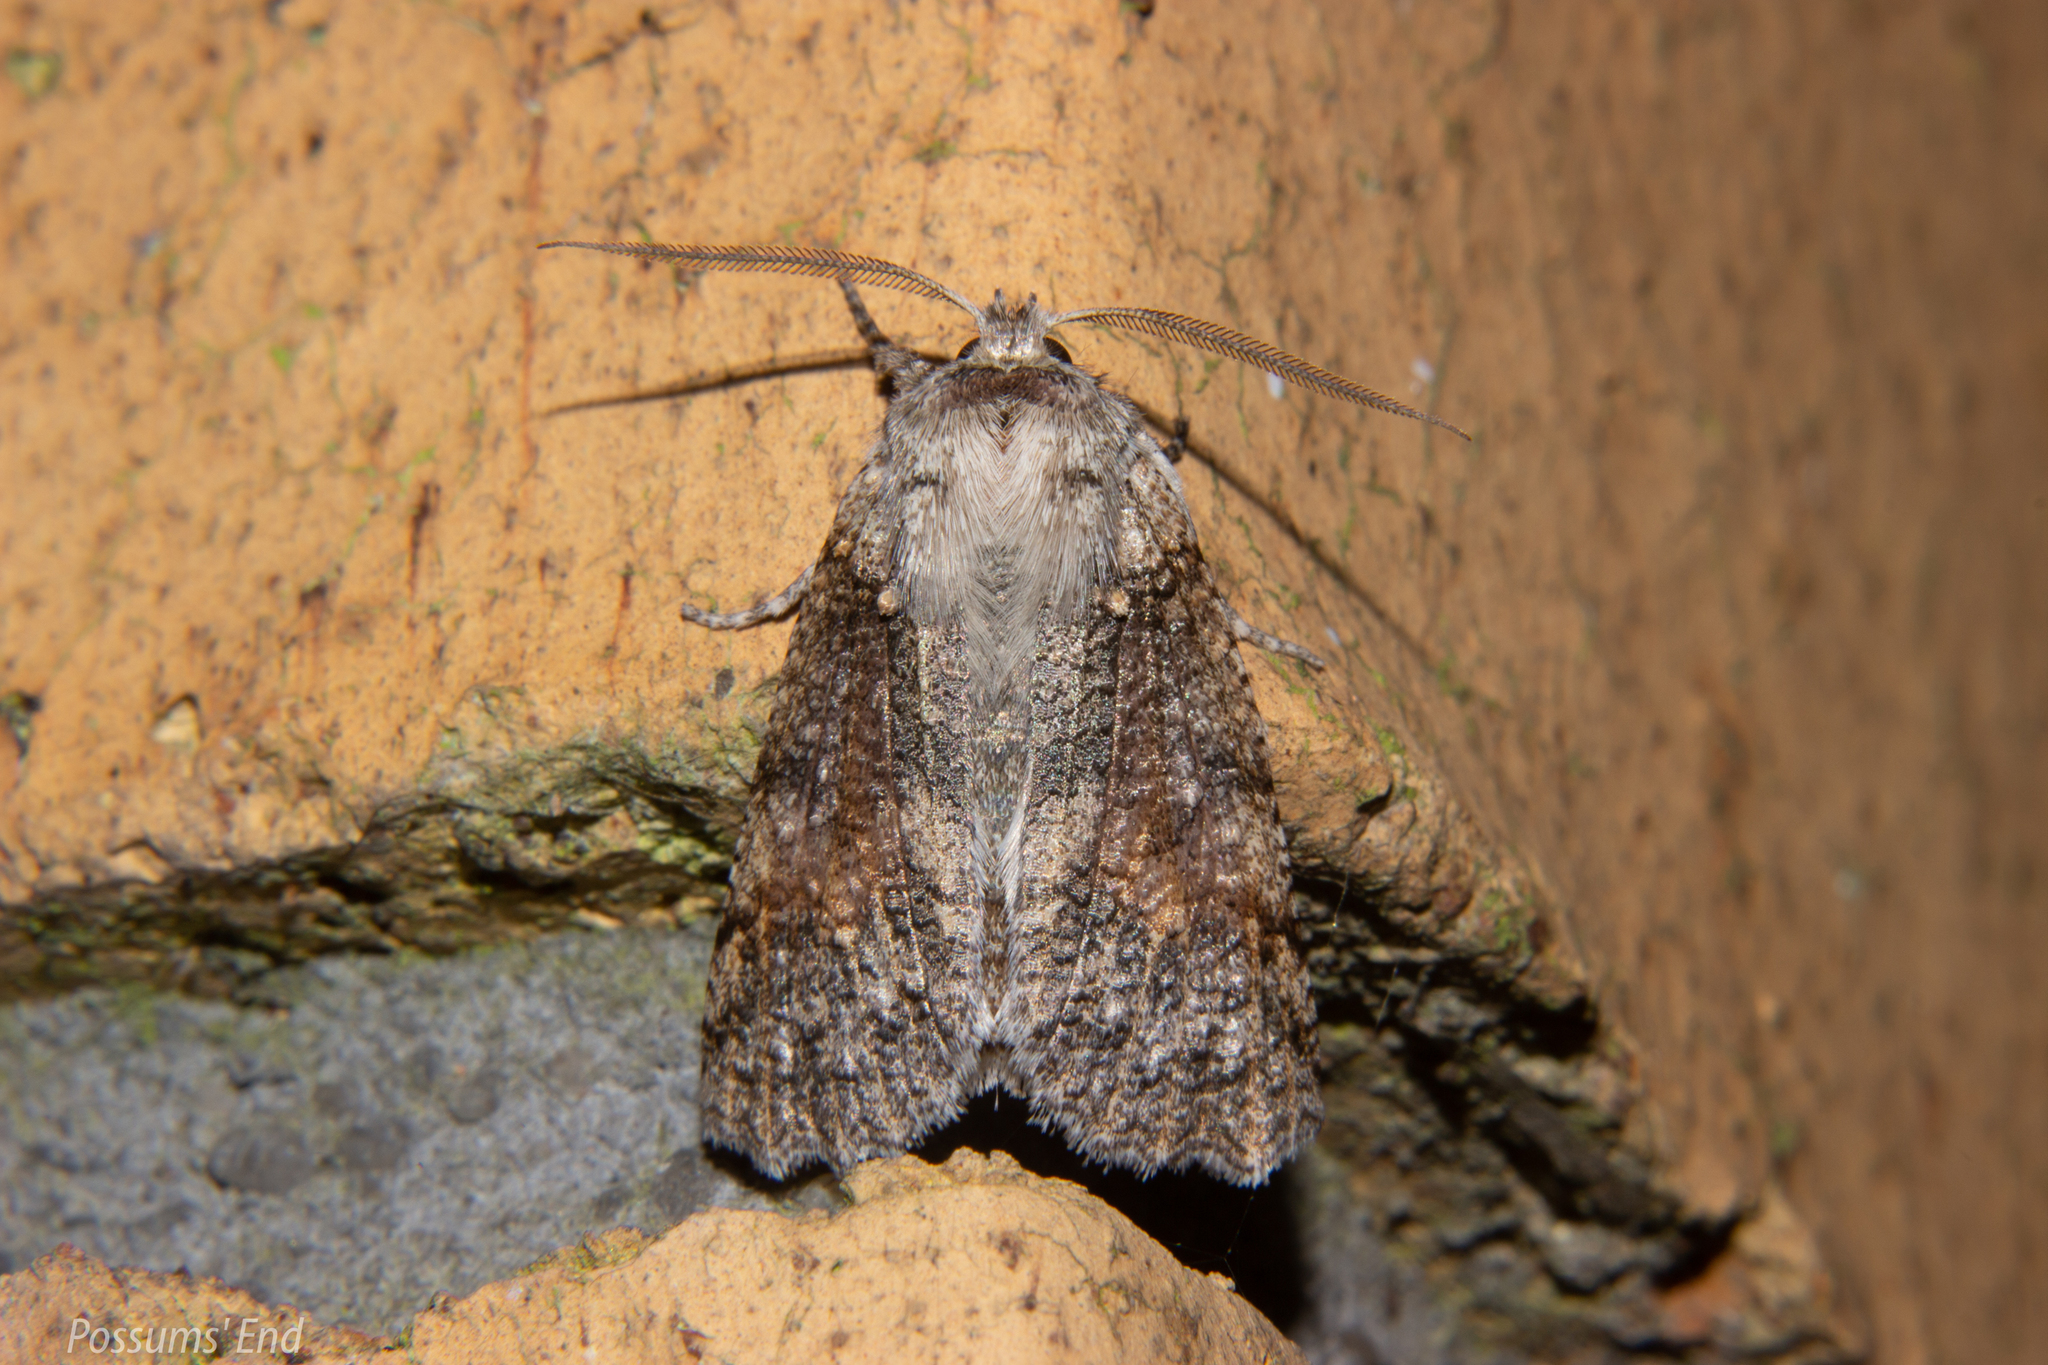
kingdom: Animalia
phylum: Arthropoda
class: Insecta
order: Lepidoptera
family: Geometridae
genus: Declana
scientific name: Declana floccosa
